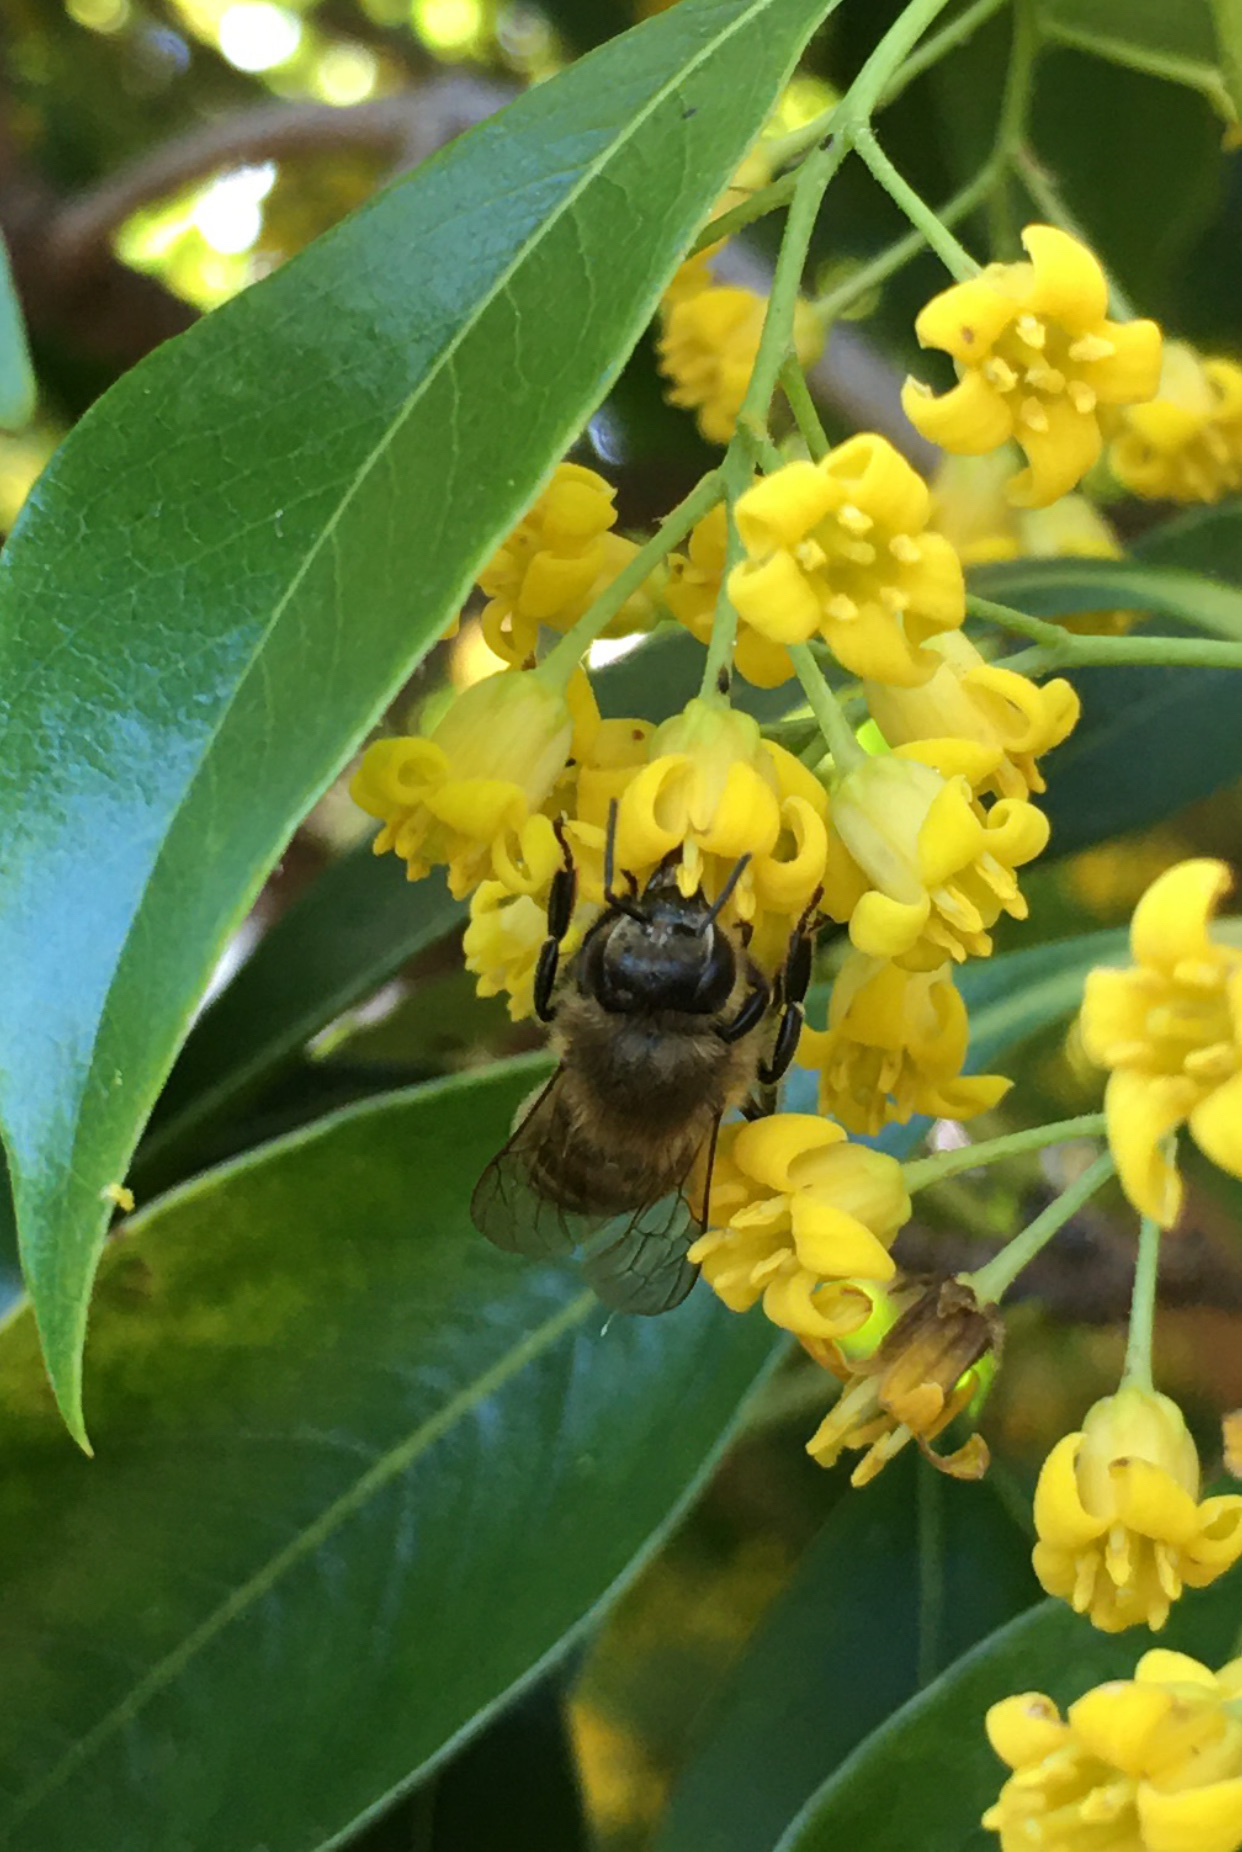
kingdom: Animalia
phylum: Arthropoda
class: Insecta
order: Hymenoptera
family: Apidae
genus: Apis
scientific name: Apis mellifera
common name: Honey bee
